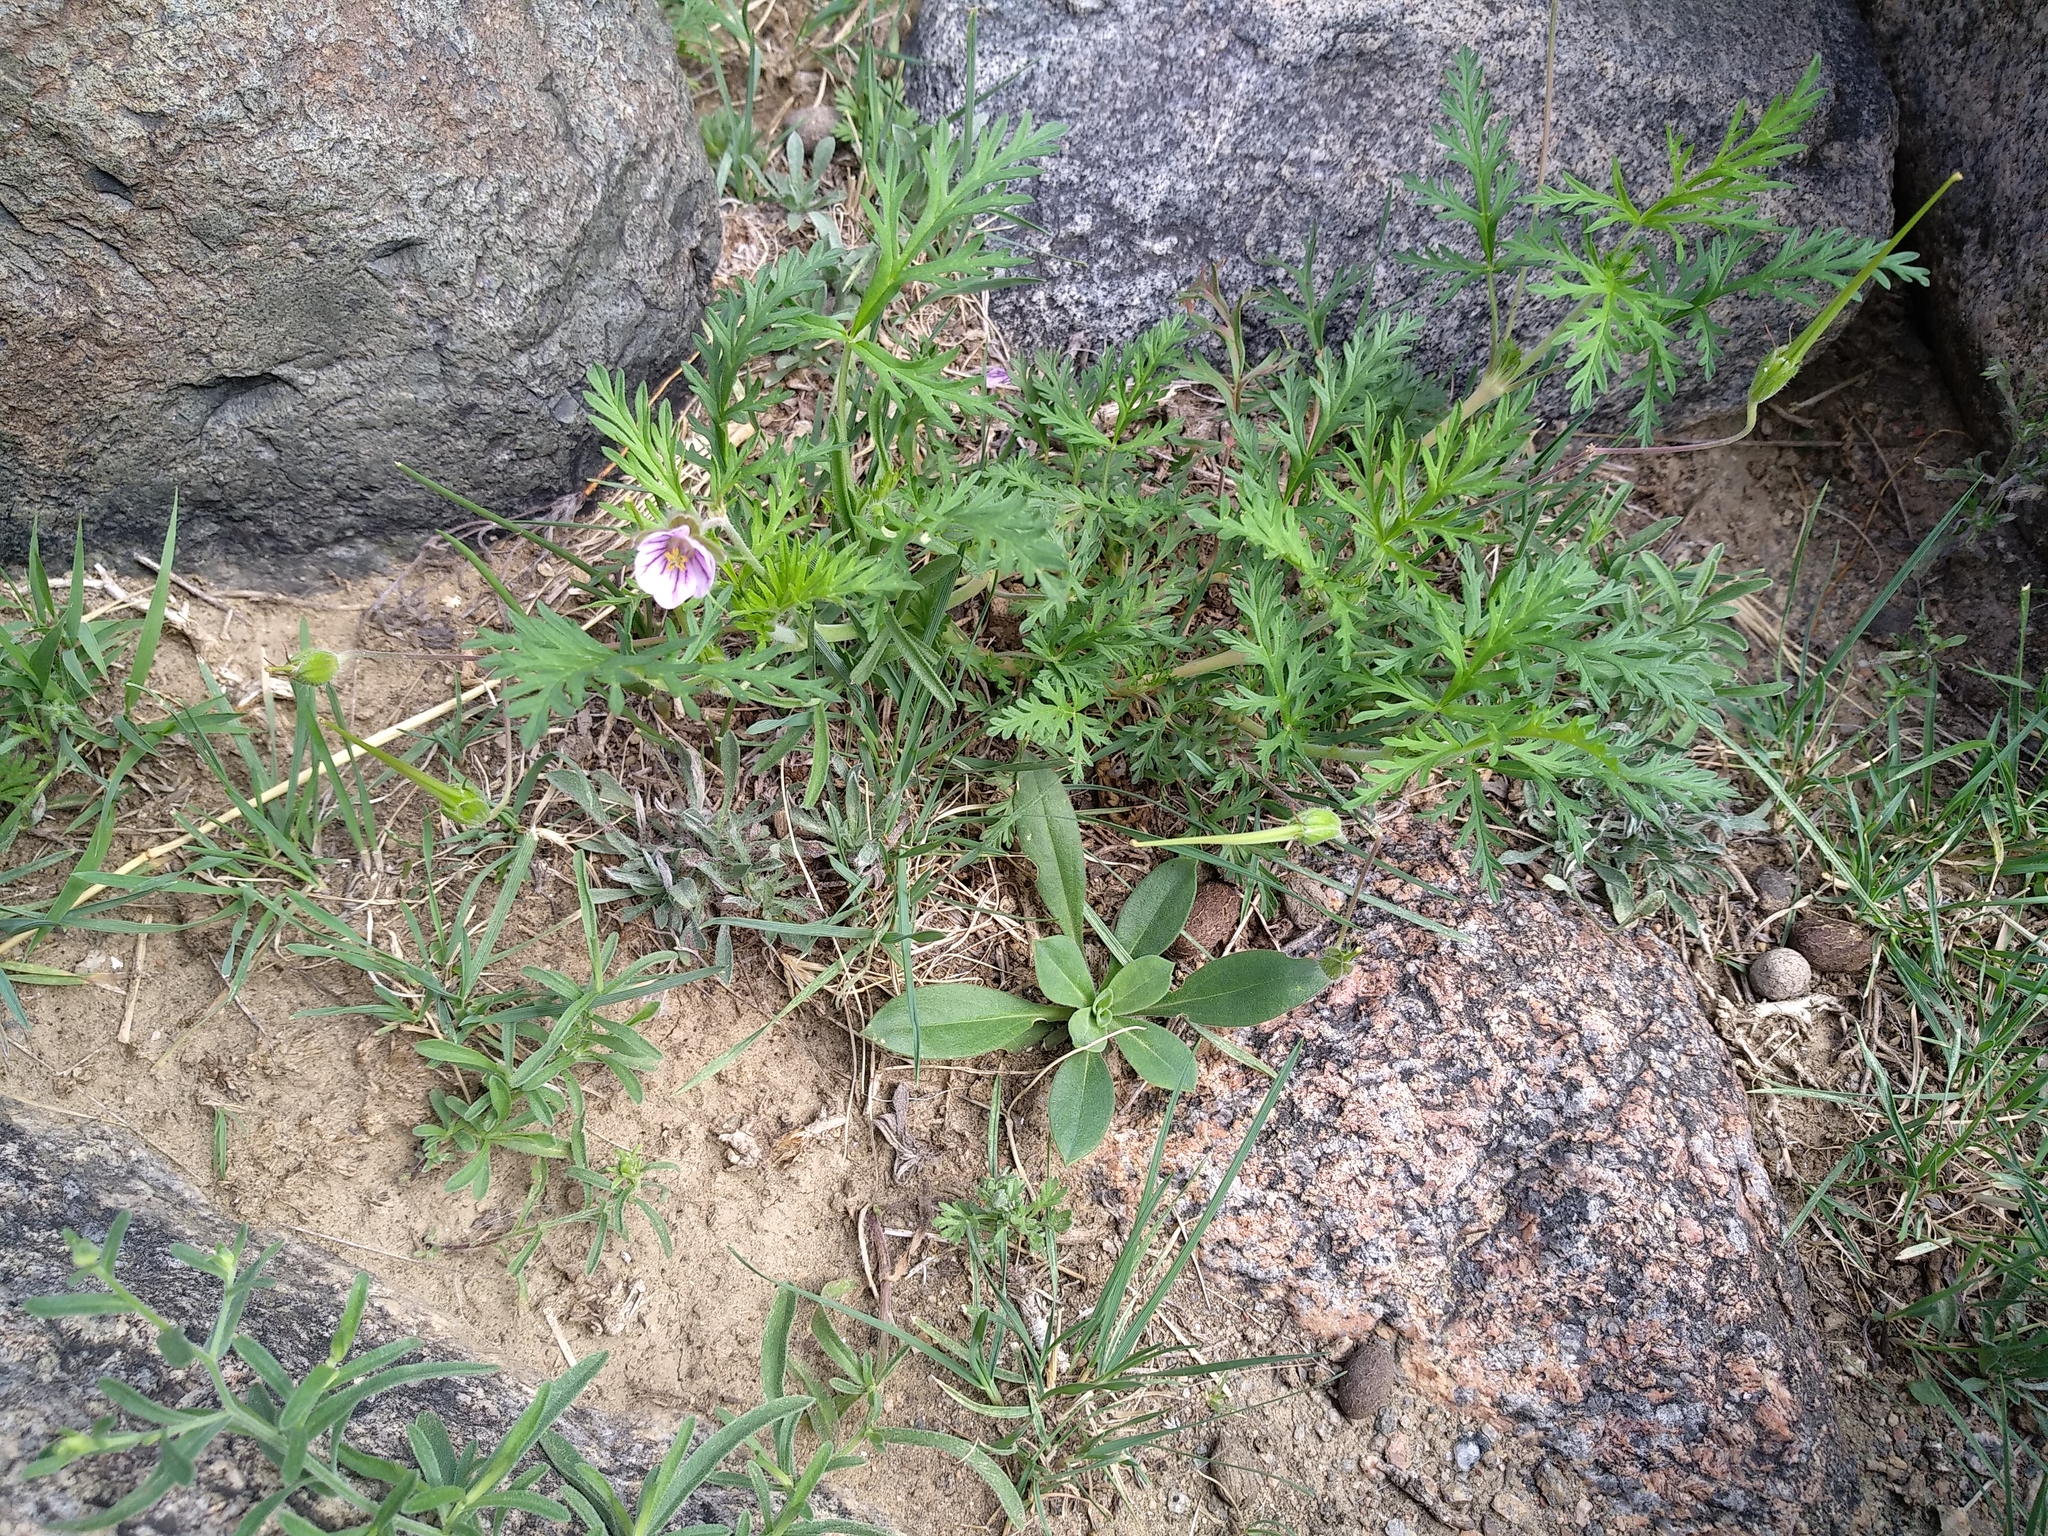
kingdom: Plantae
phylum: Tracheophyta
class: Magnoliopsida
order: Geraniales
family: Geraniaceae
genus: Erodium
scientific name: Erodium stephanianum
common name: Stephen's stork's bill
